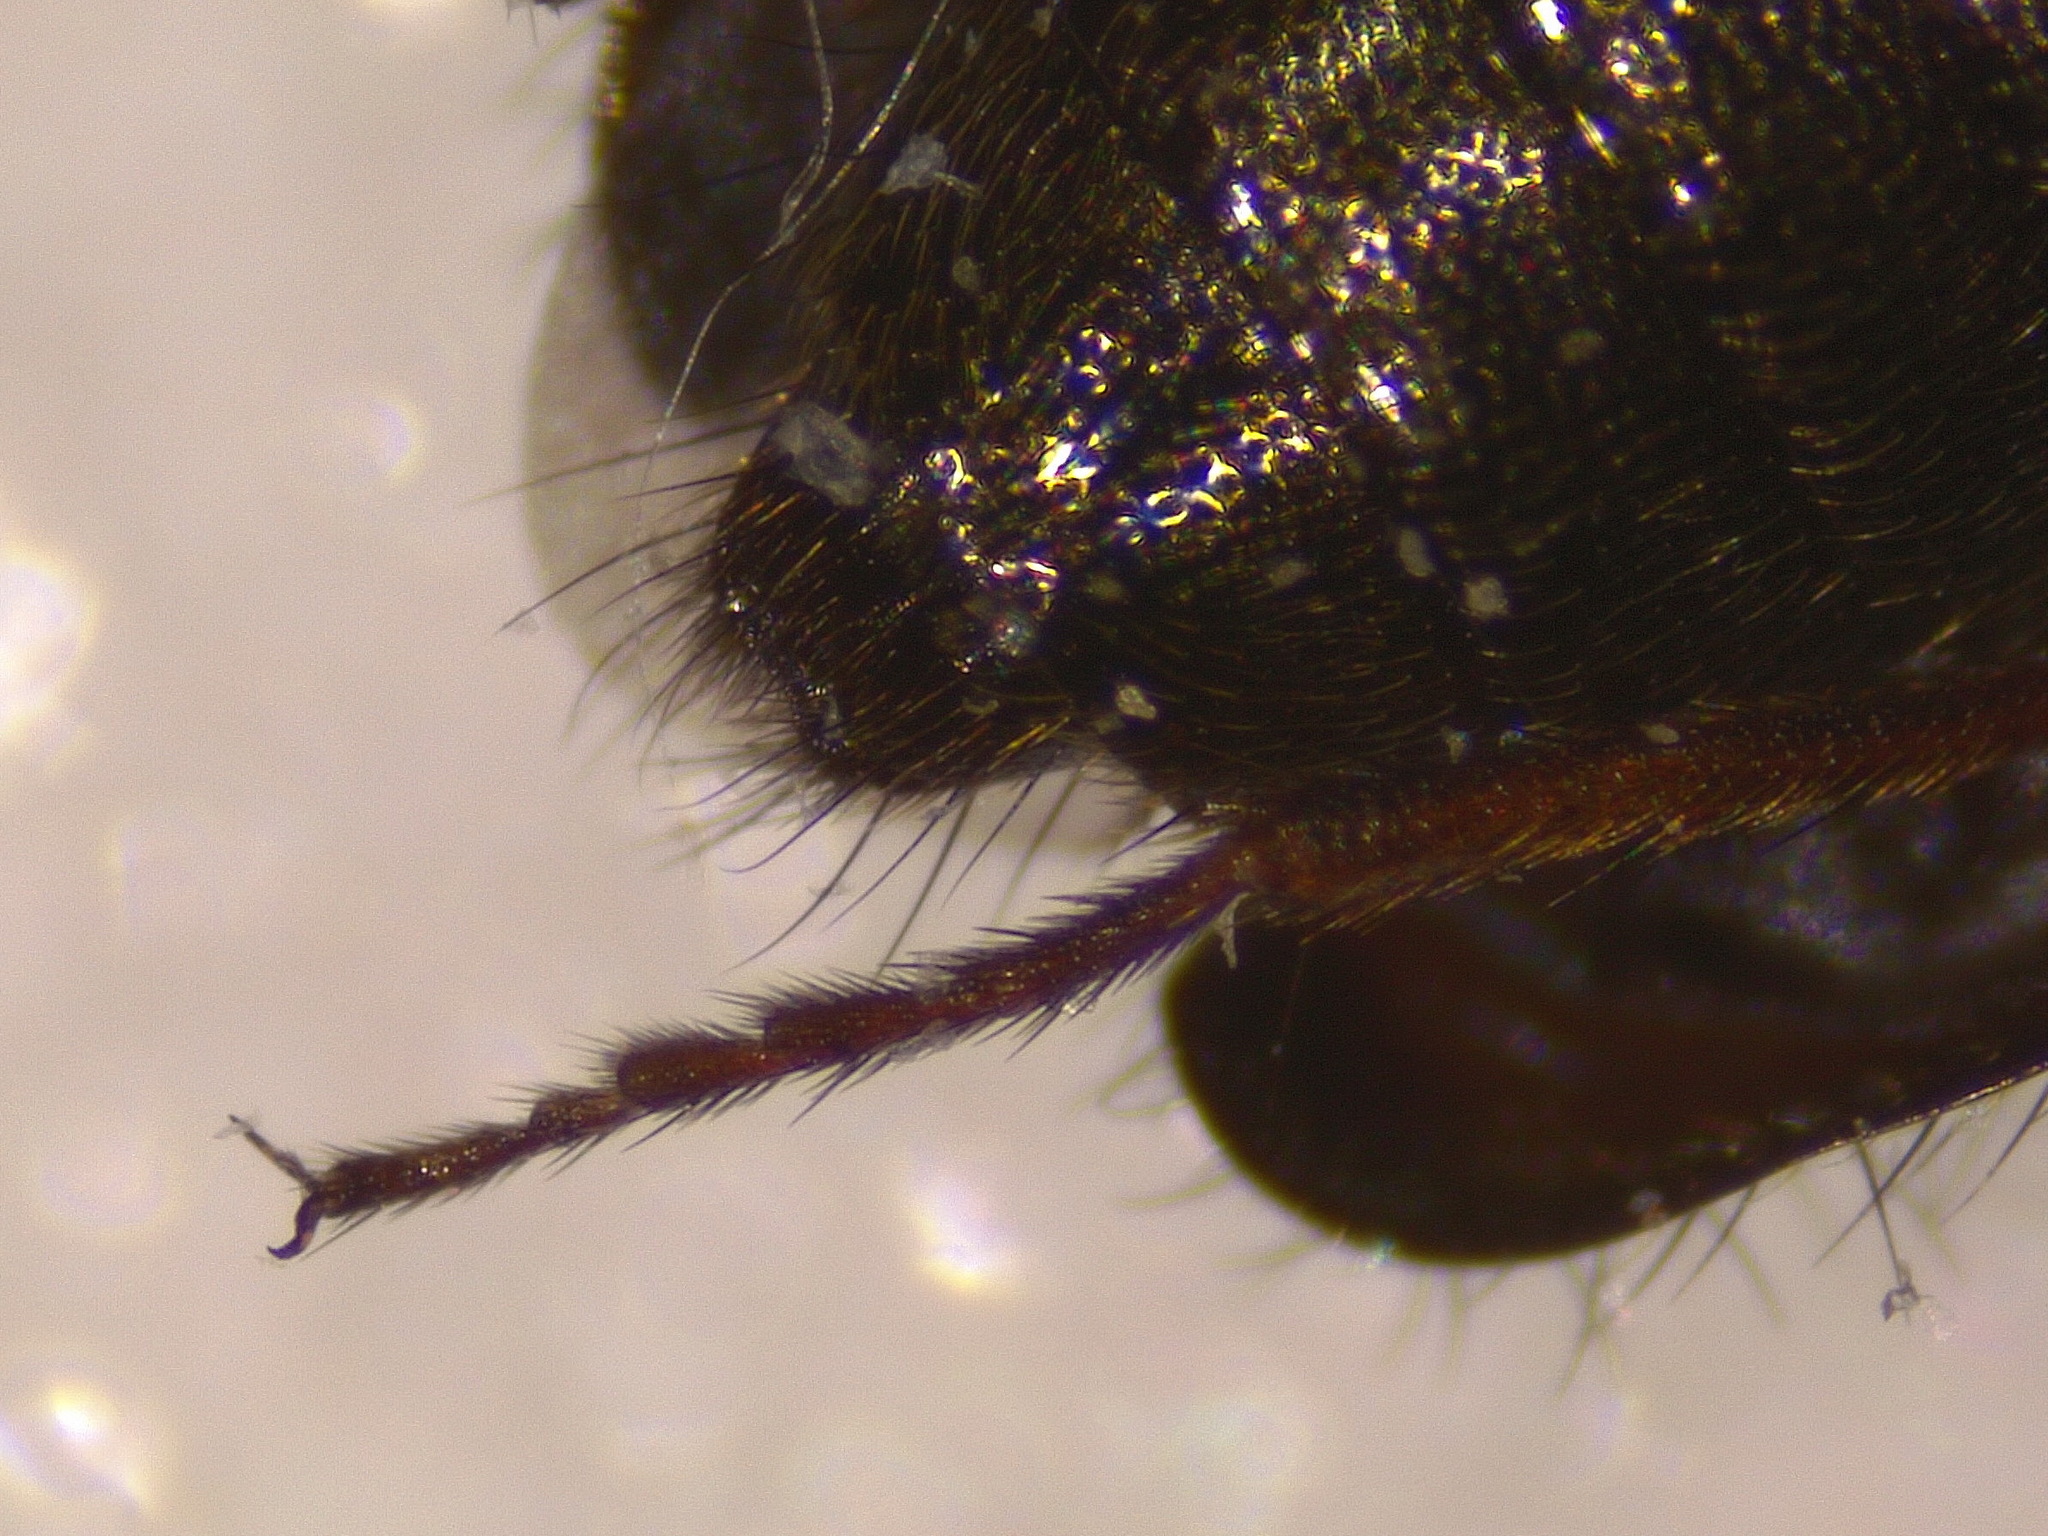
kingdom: Animalia
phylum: Arthropoda
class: Insecta
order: Coleoptera
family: Melyridae
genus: Dasytes
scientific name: Dasytes plumbeus
